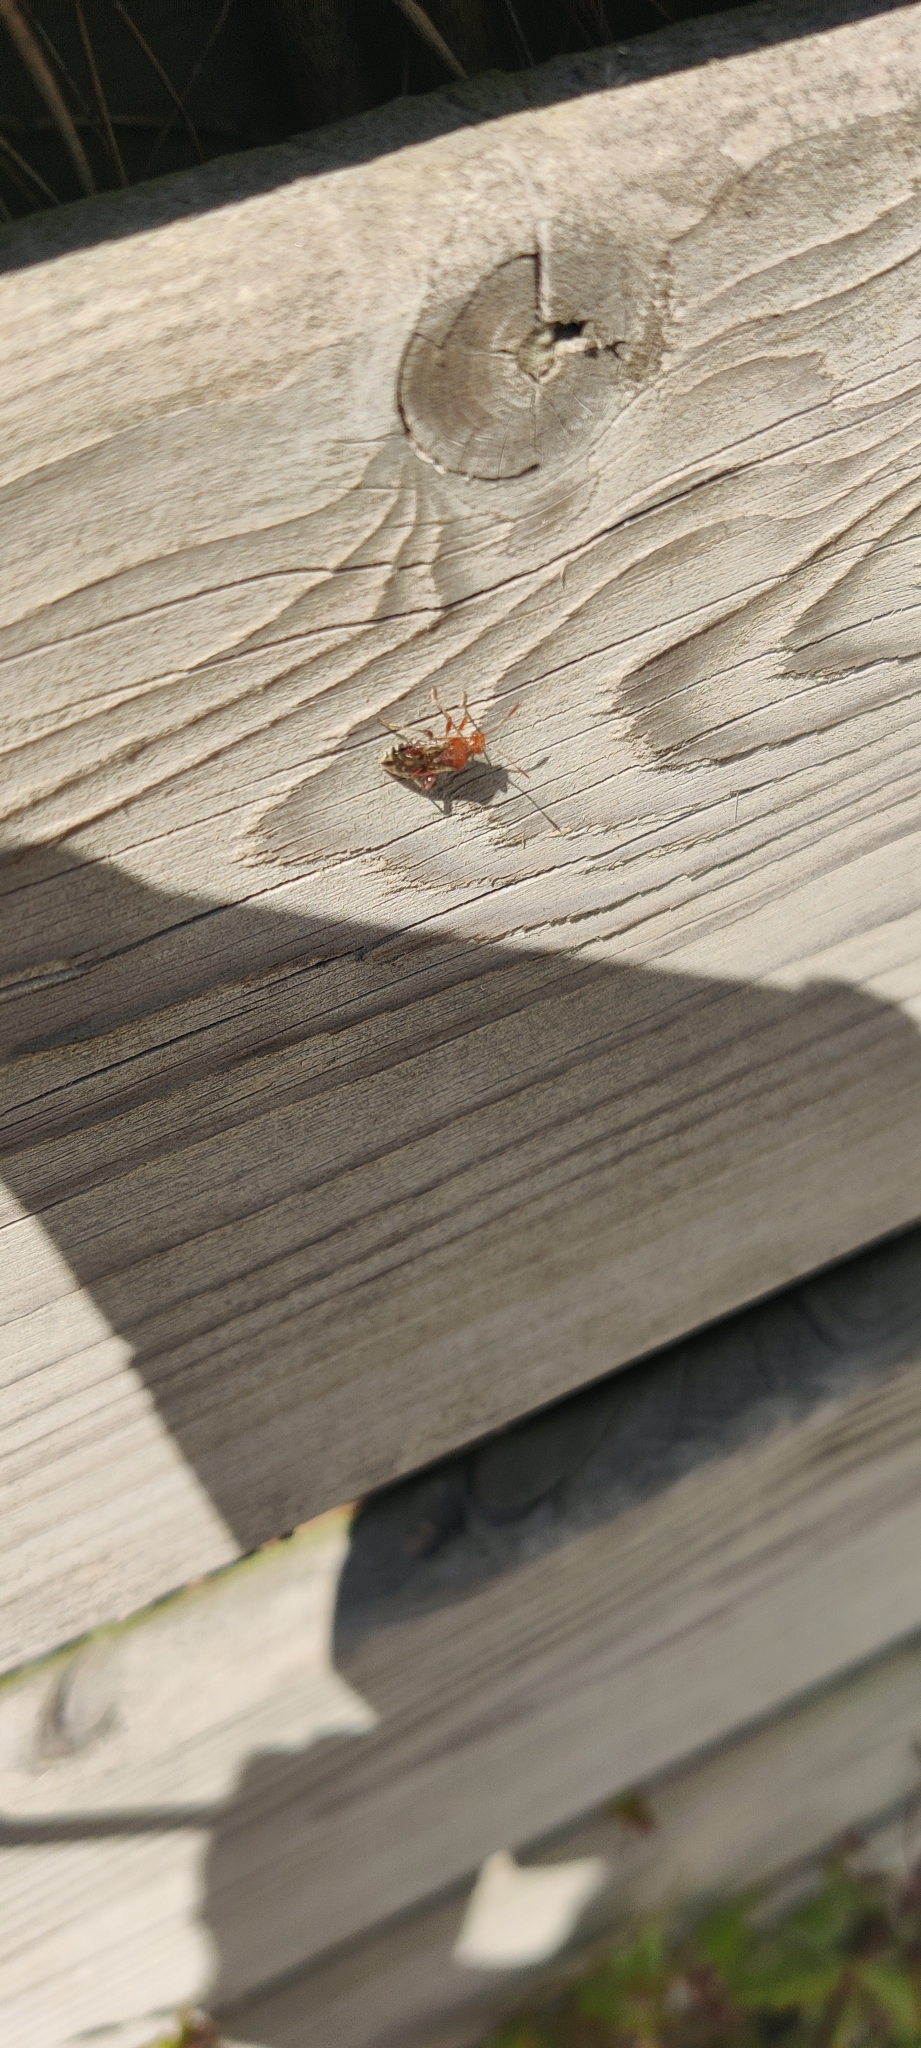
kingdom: Animalia
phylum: Arthropoda
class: Insecta
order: Hemiptera
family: Rhopalidae
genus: Rhopalus
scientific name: Rhopalus subrufus
